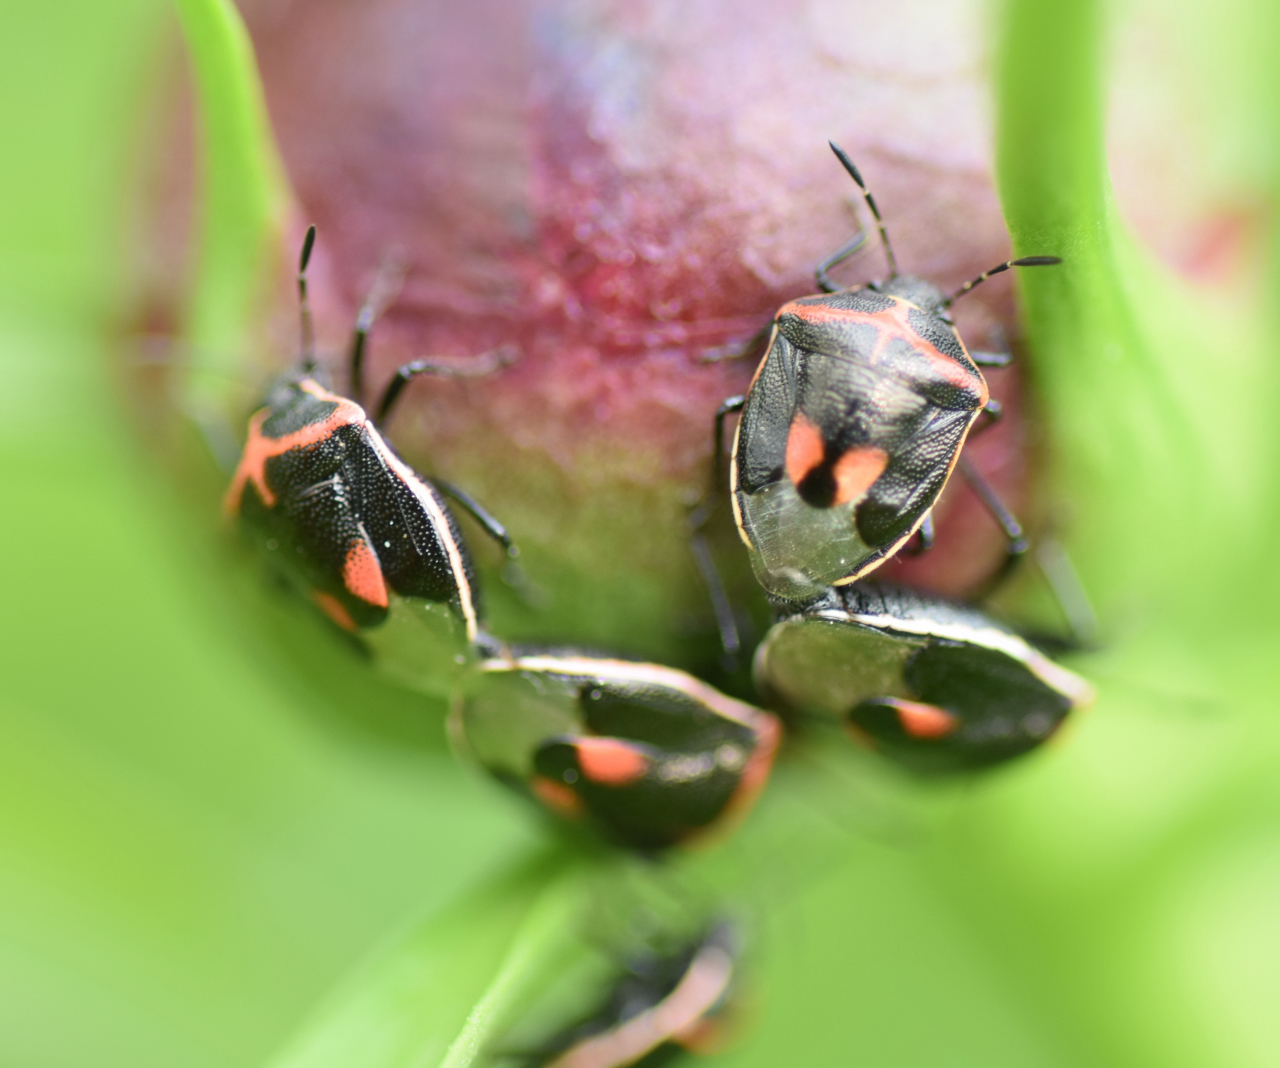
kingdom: Animalia
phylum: Arthropoda
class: Insecta
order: Hemiptera
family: Pentatomidae
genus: Cosmopepla
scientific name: Cosmopepla lintneriana
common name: Twice-stabbed stink bug
